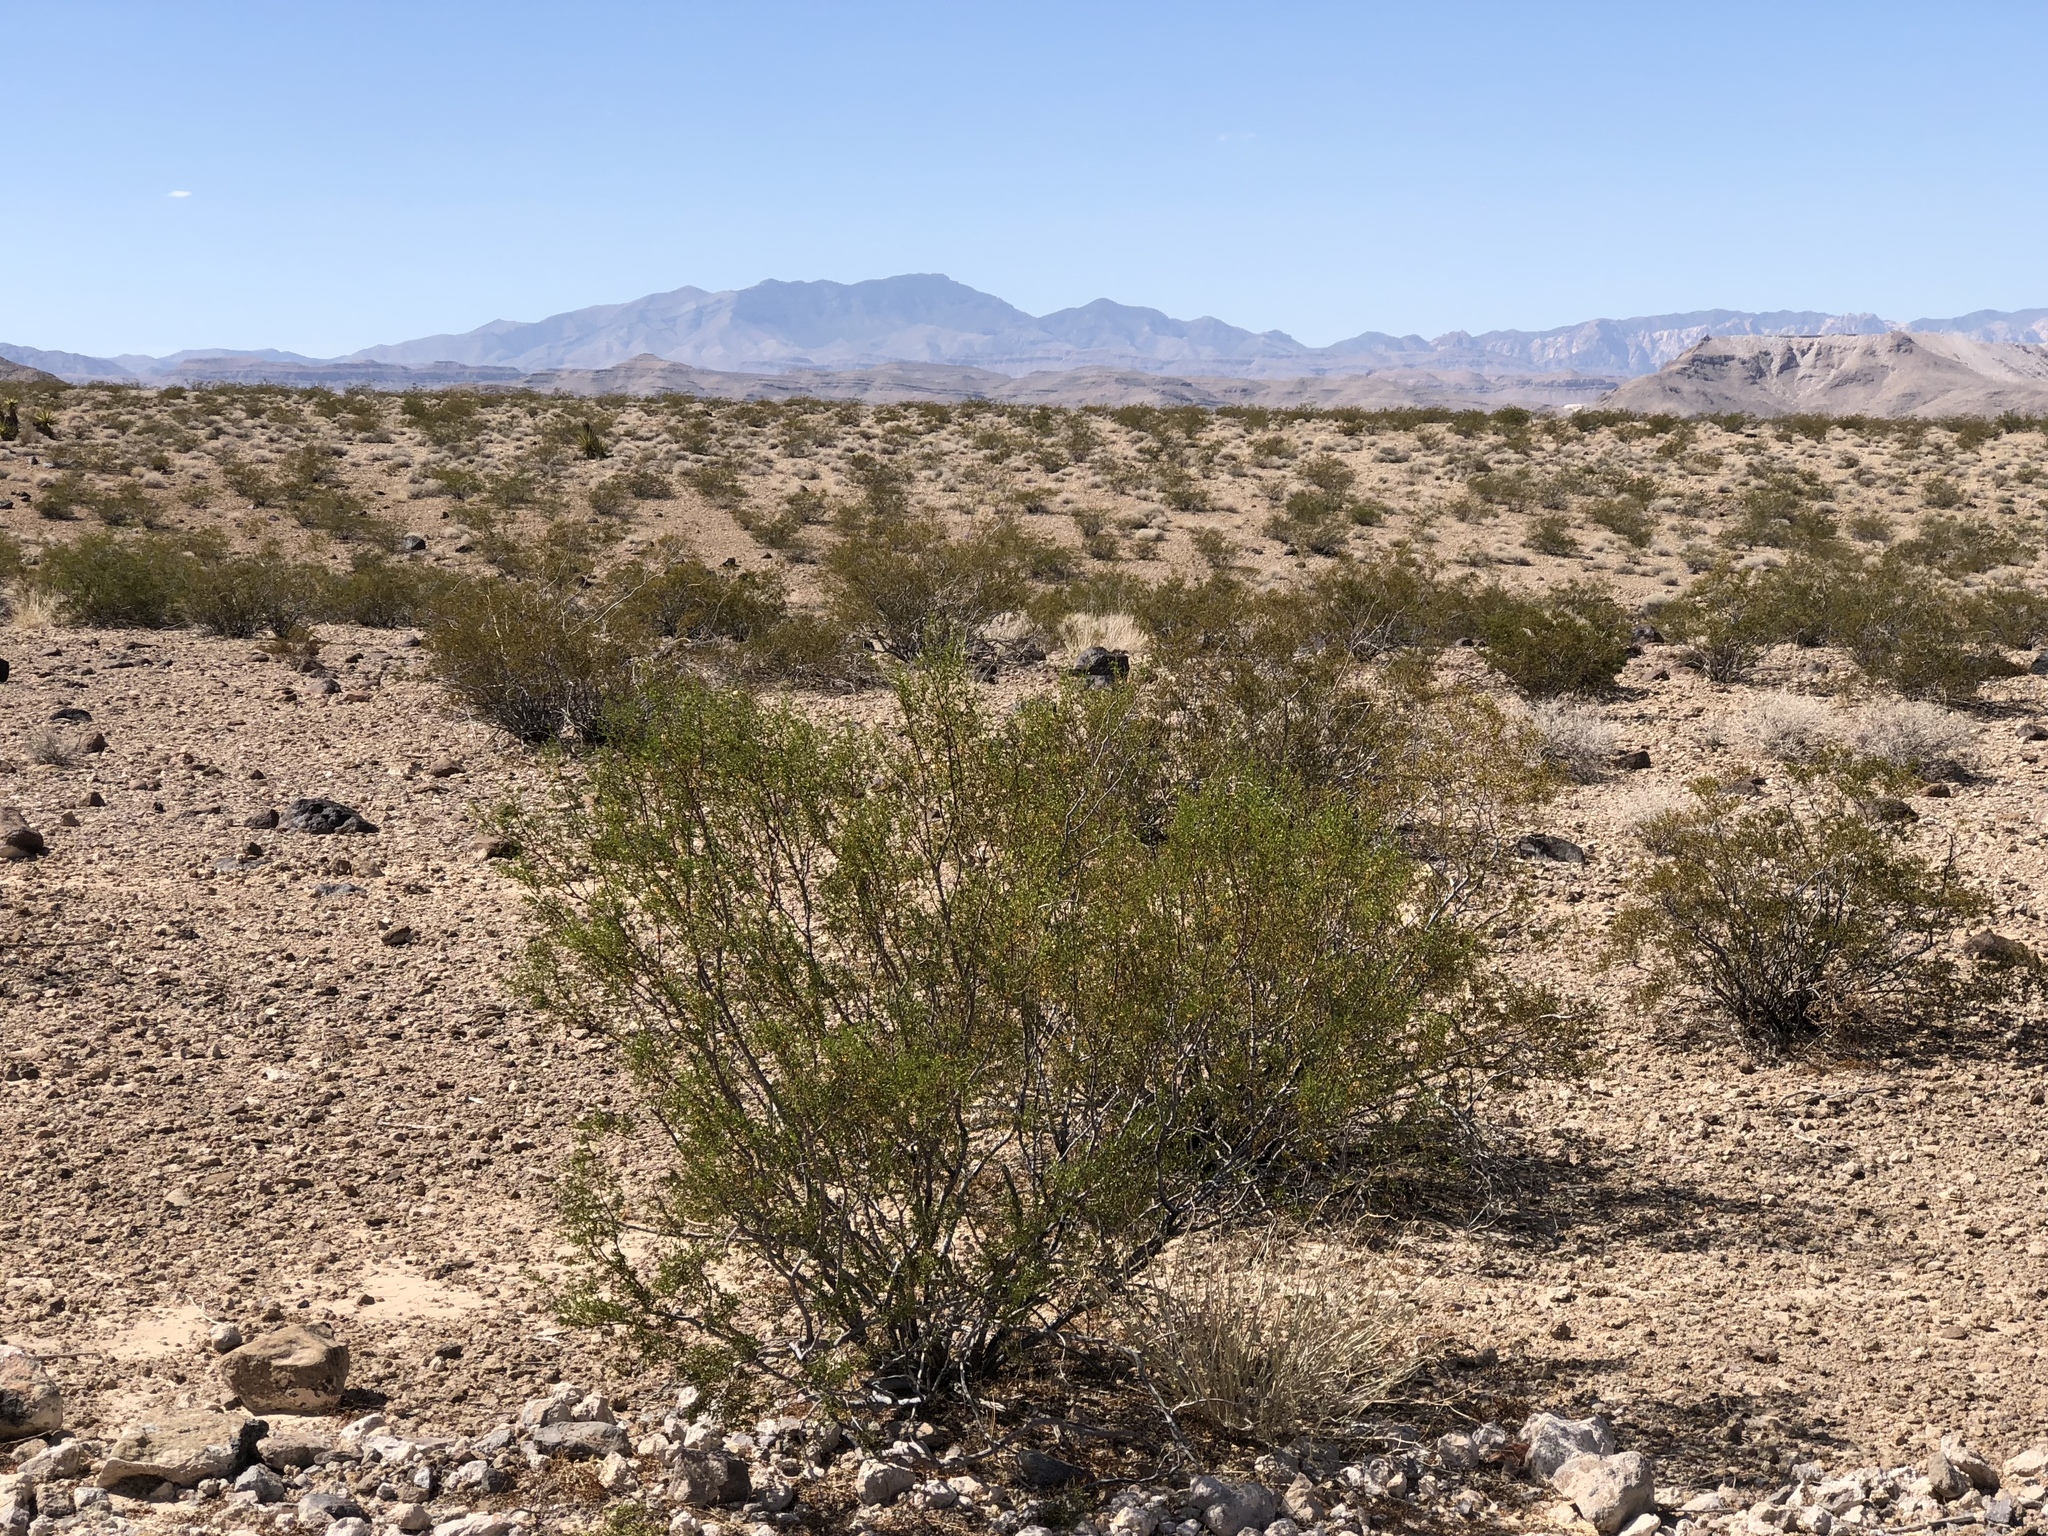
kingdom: Plantae
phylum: Tracheophyta
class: Magnoliopsida
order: Zygophyllales
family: Zygophyllaceae
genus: Larrea
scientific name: Larrea tridentata
